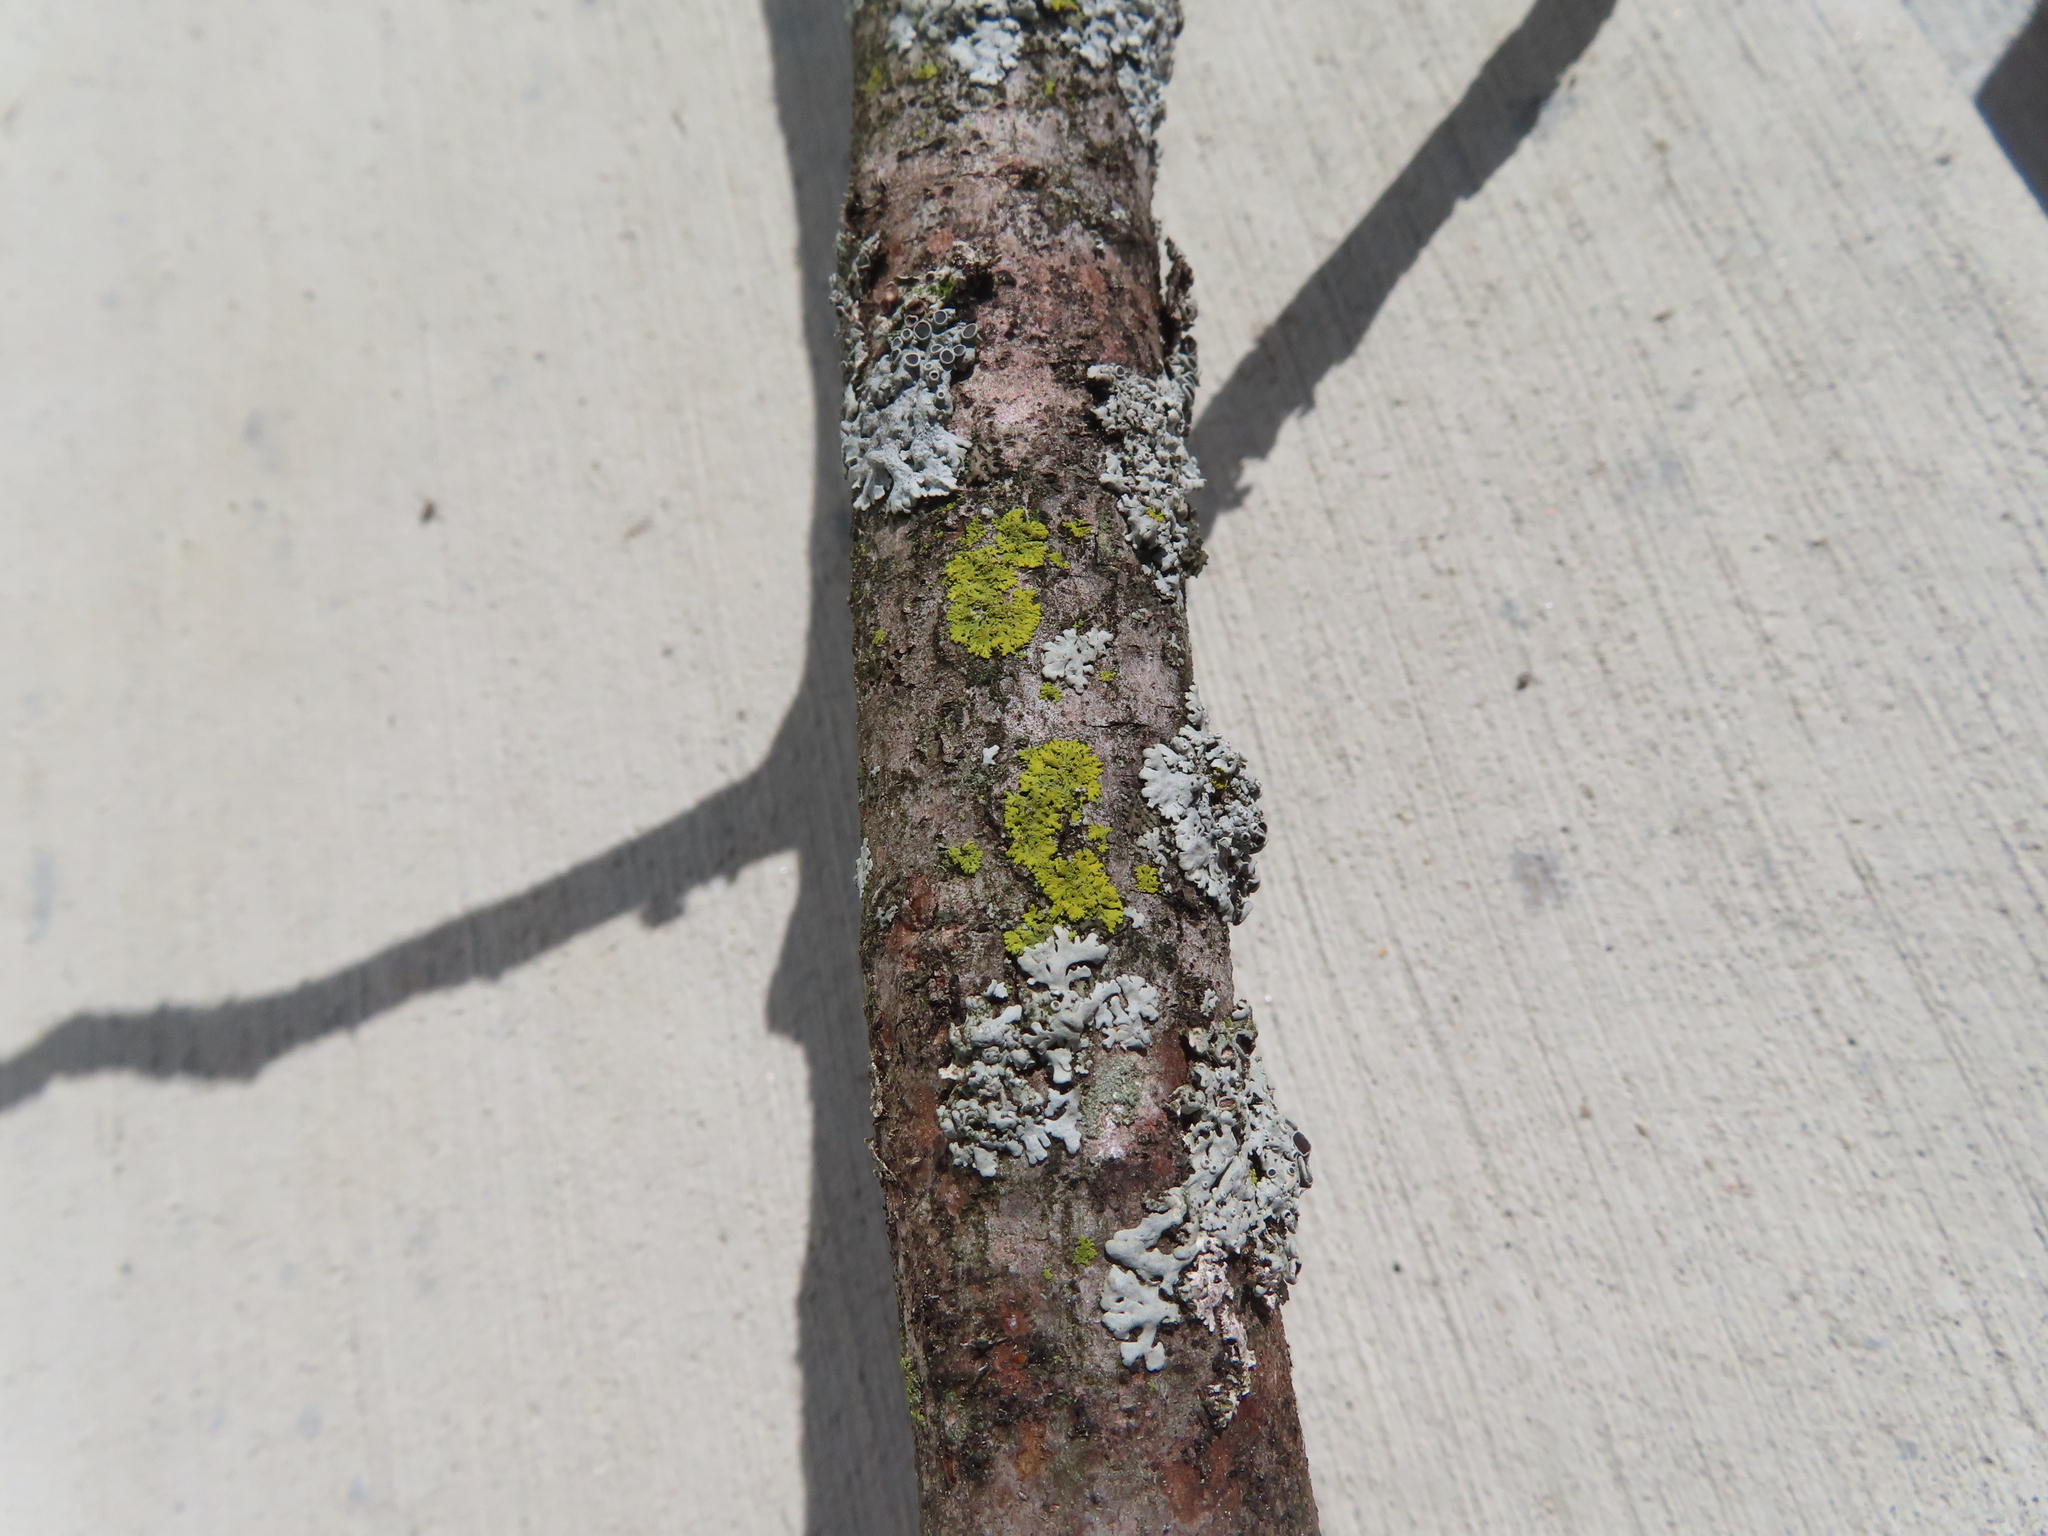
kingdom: Fungi
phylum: Ascomycota
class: Candelariomycetes
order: Candelariales
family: Candelariaceae
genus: Candelaria
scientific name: Candelaria concolor
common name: Candleflame lichen
